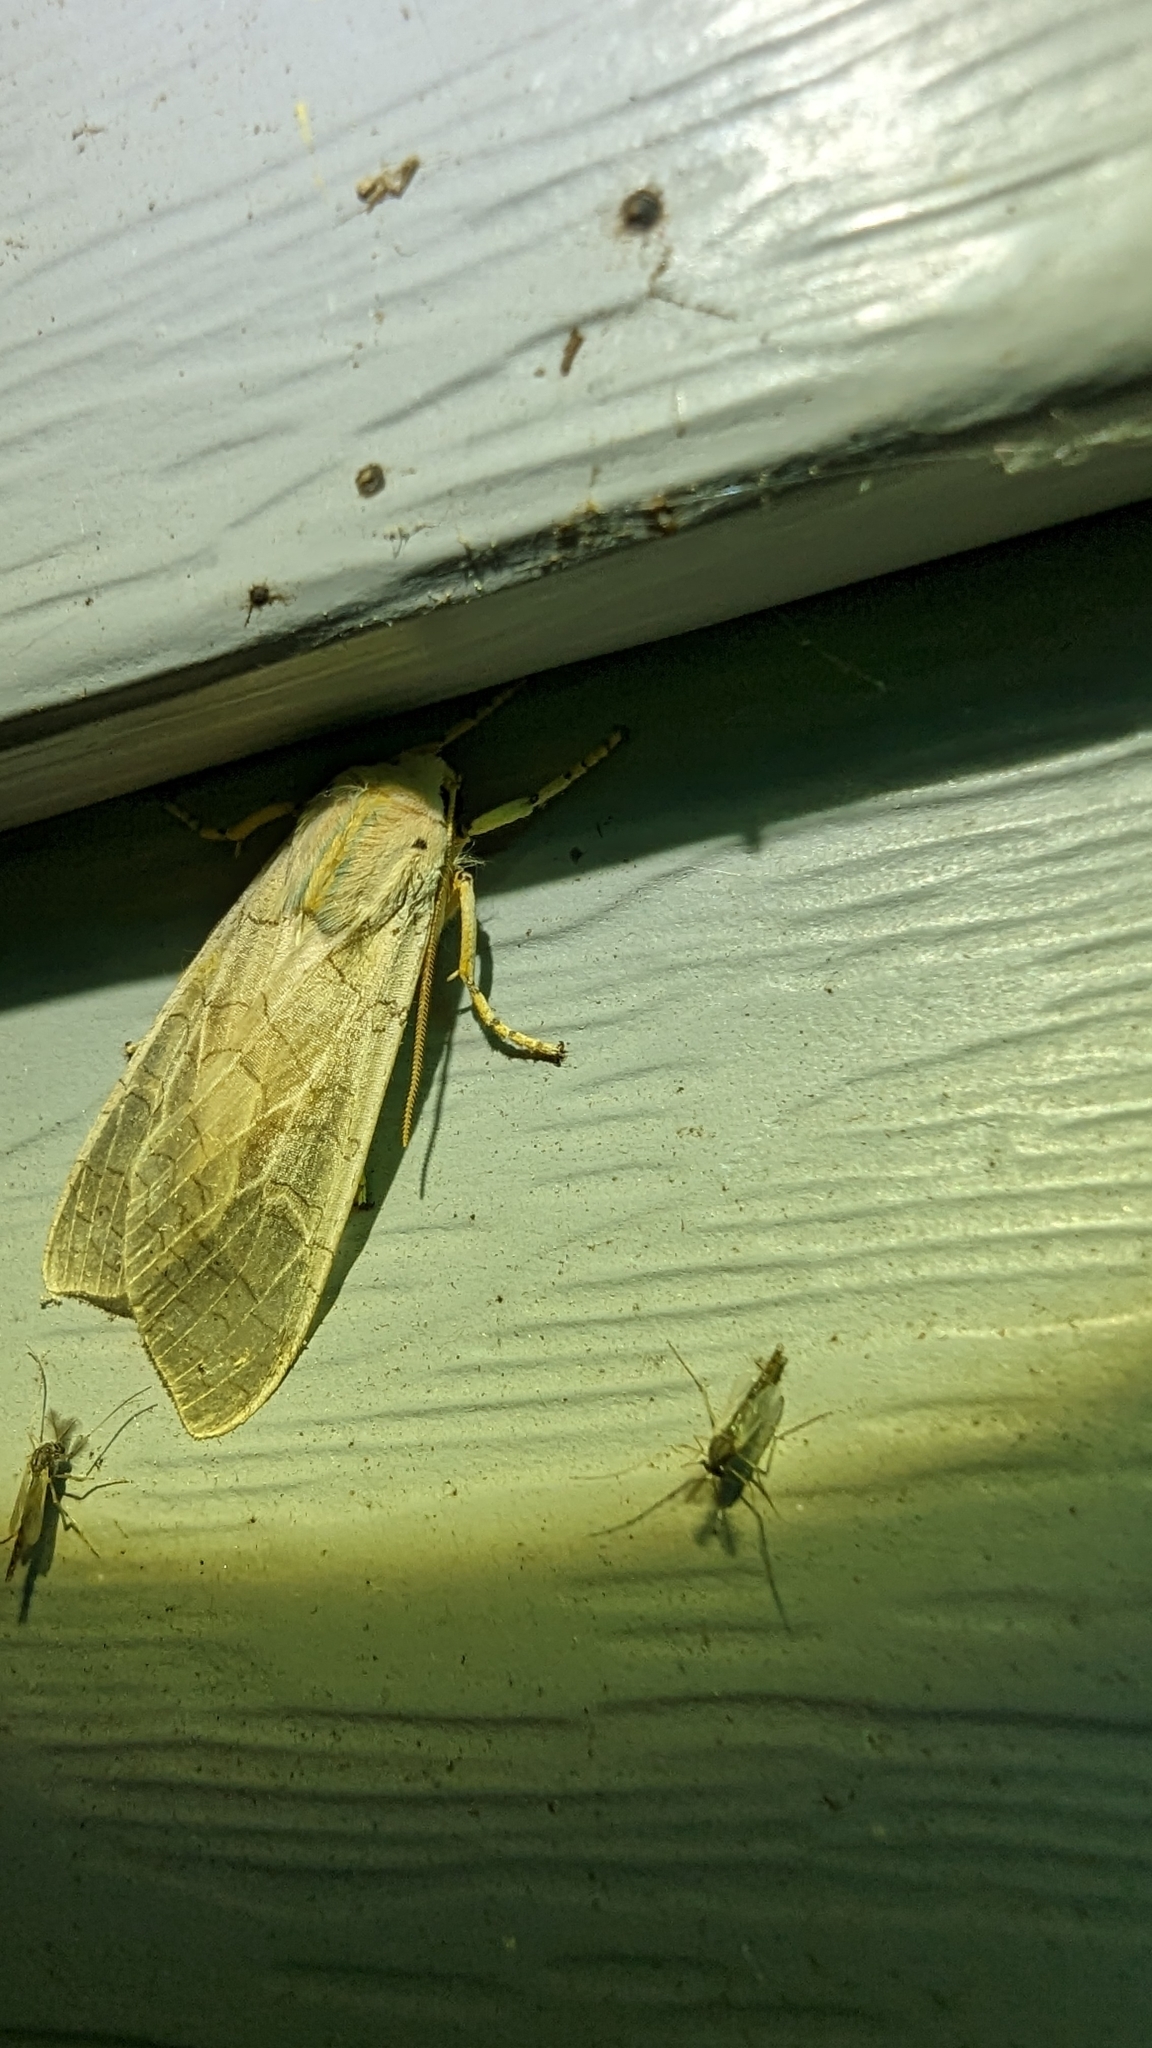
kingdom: Animalia
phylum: Arthropoda
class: Insecta
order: Lepidoptera
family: Erebidae
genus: Halysidota
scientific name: Halysidota
